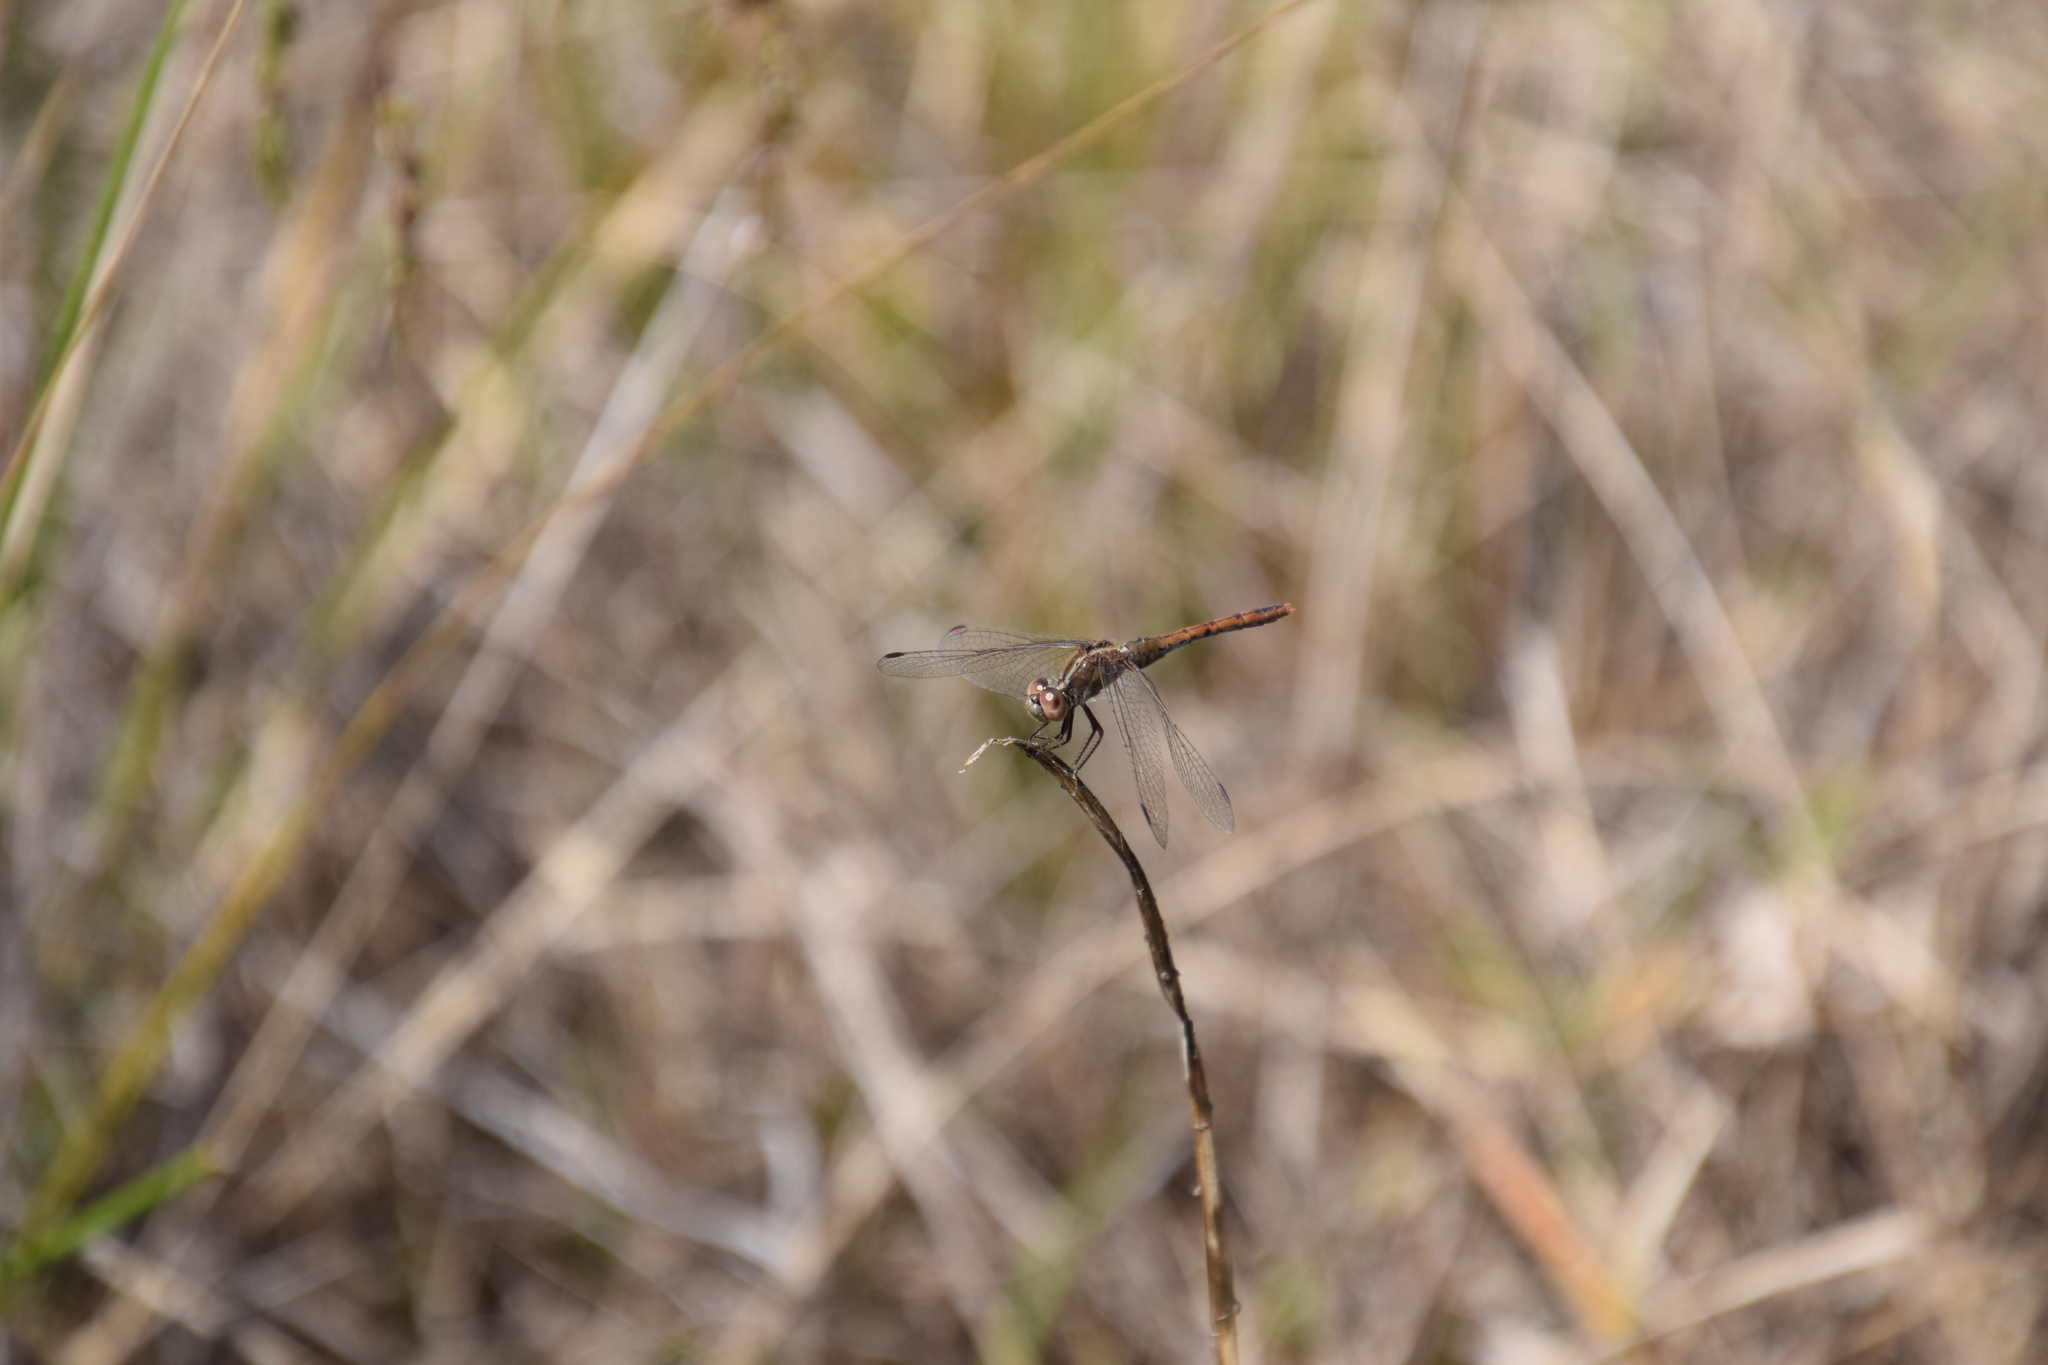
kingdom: Animalia
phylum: Arthropoda
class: Insecta
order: Odonata
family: Libellulidae
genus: Diplacodes
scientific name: Diplacodes bipunctata
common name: Red percher dragonfly
